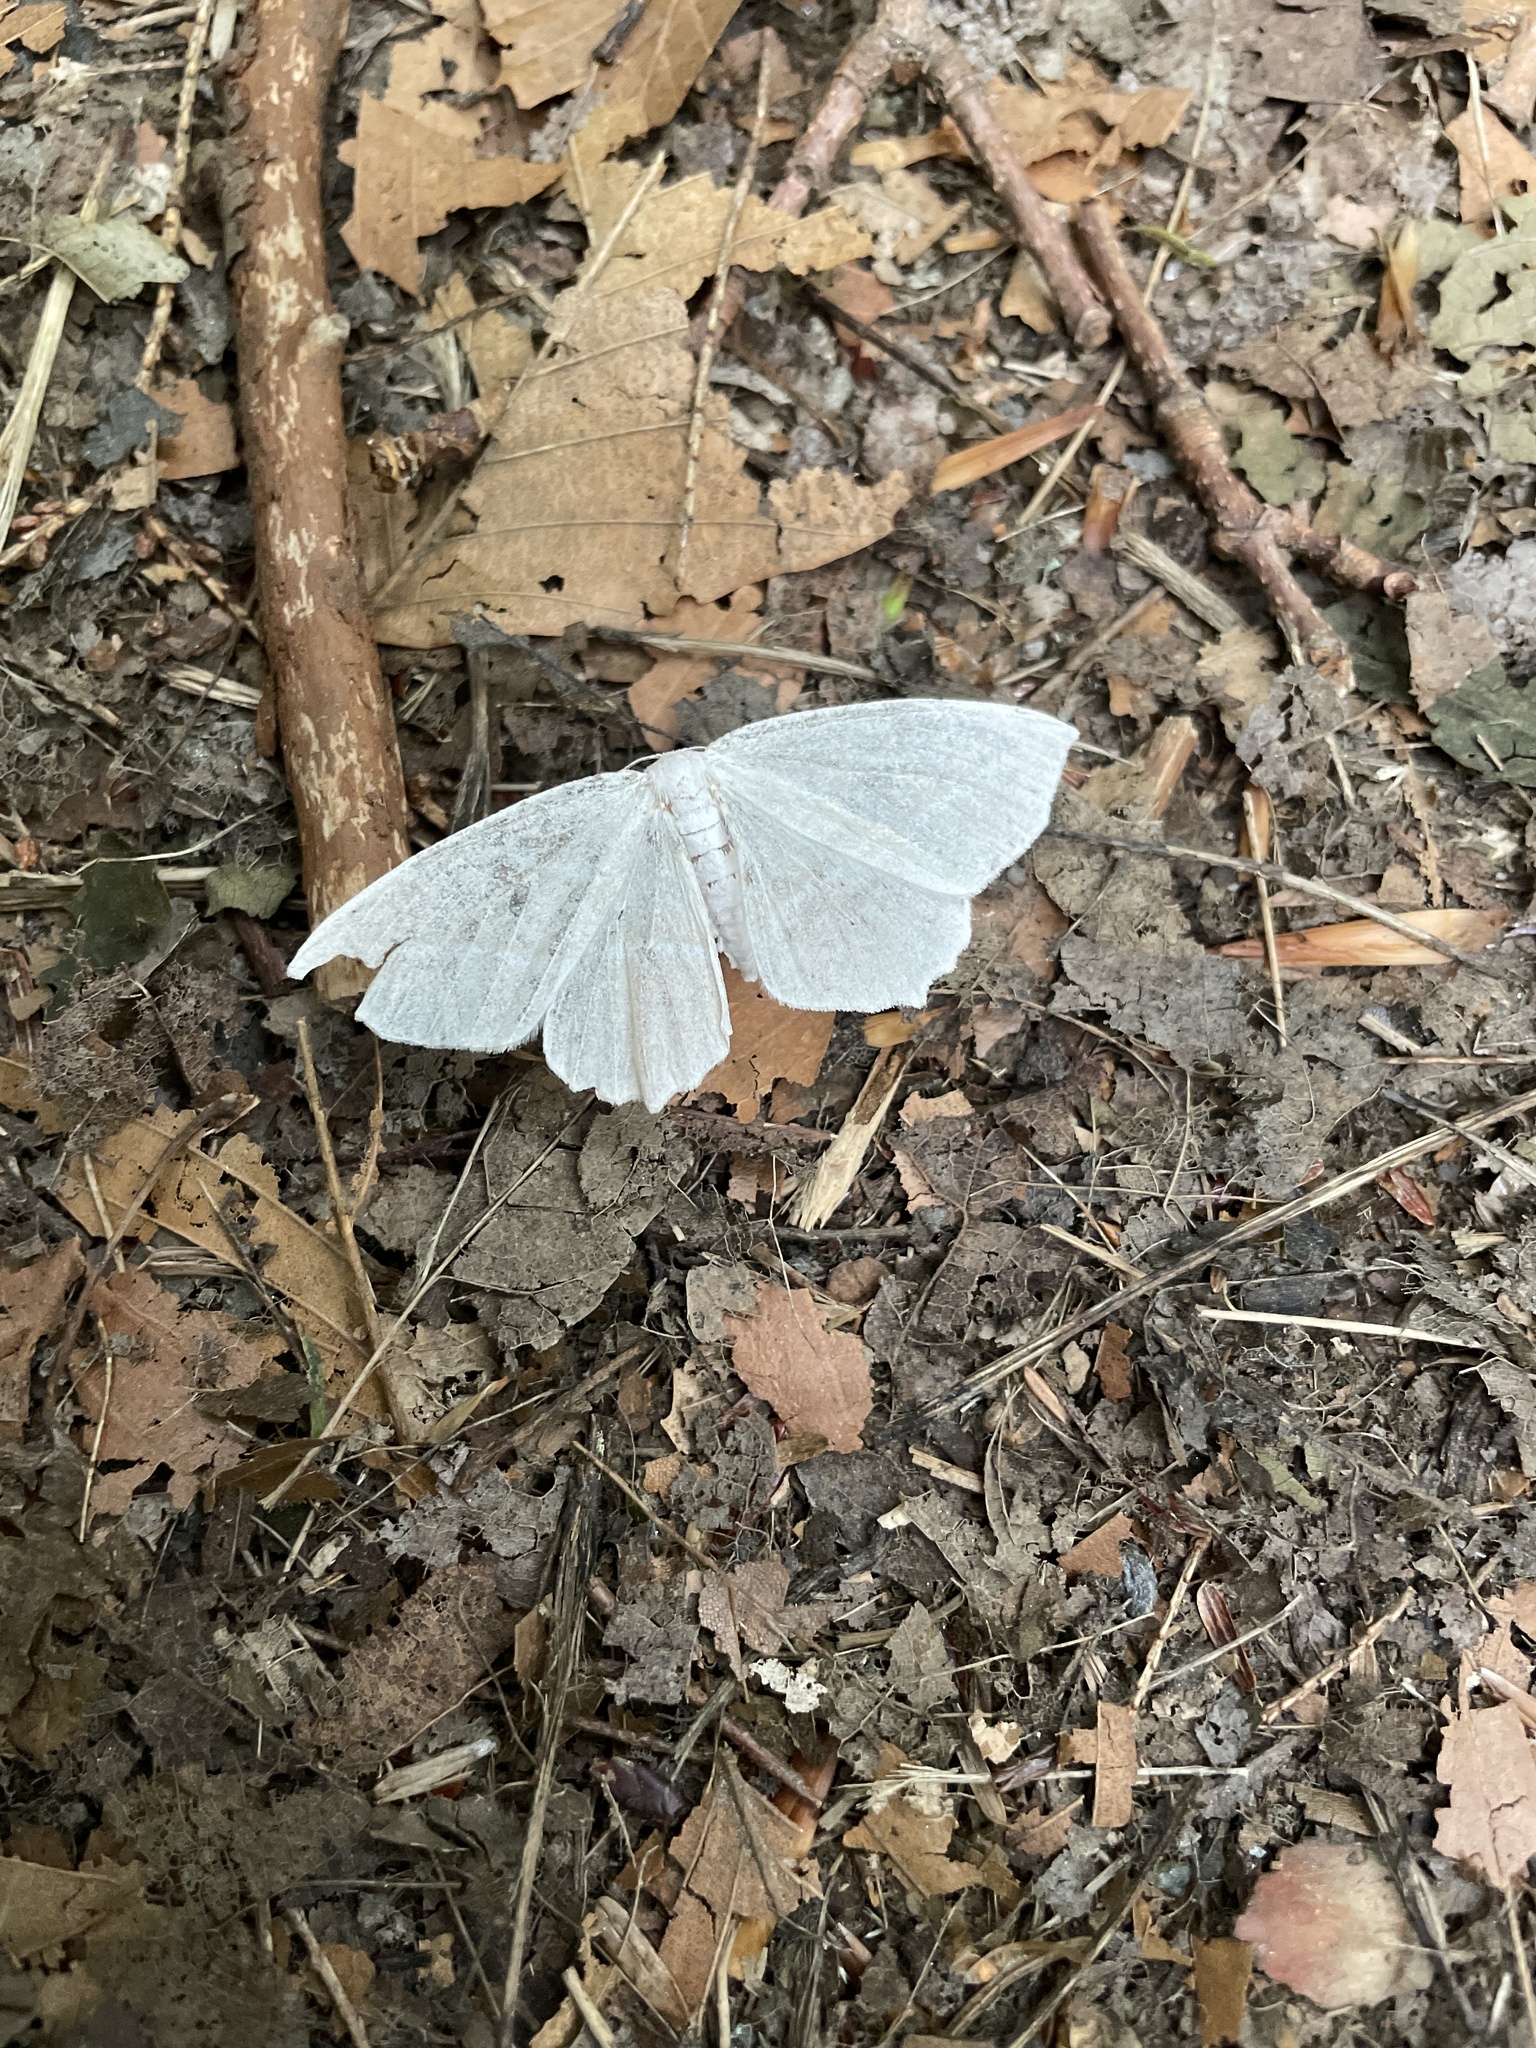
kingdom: Animalia
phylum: Arthropoda
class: Insecta
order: Lepidoptera
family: Geometridae
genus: Campaea
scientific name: Campaea perlata
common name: Fringed looper
